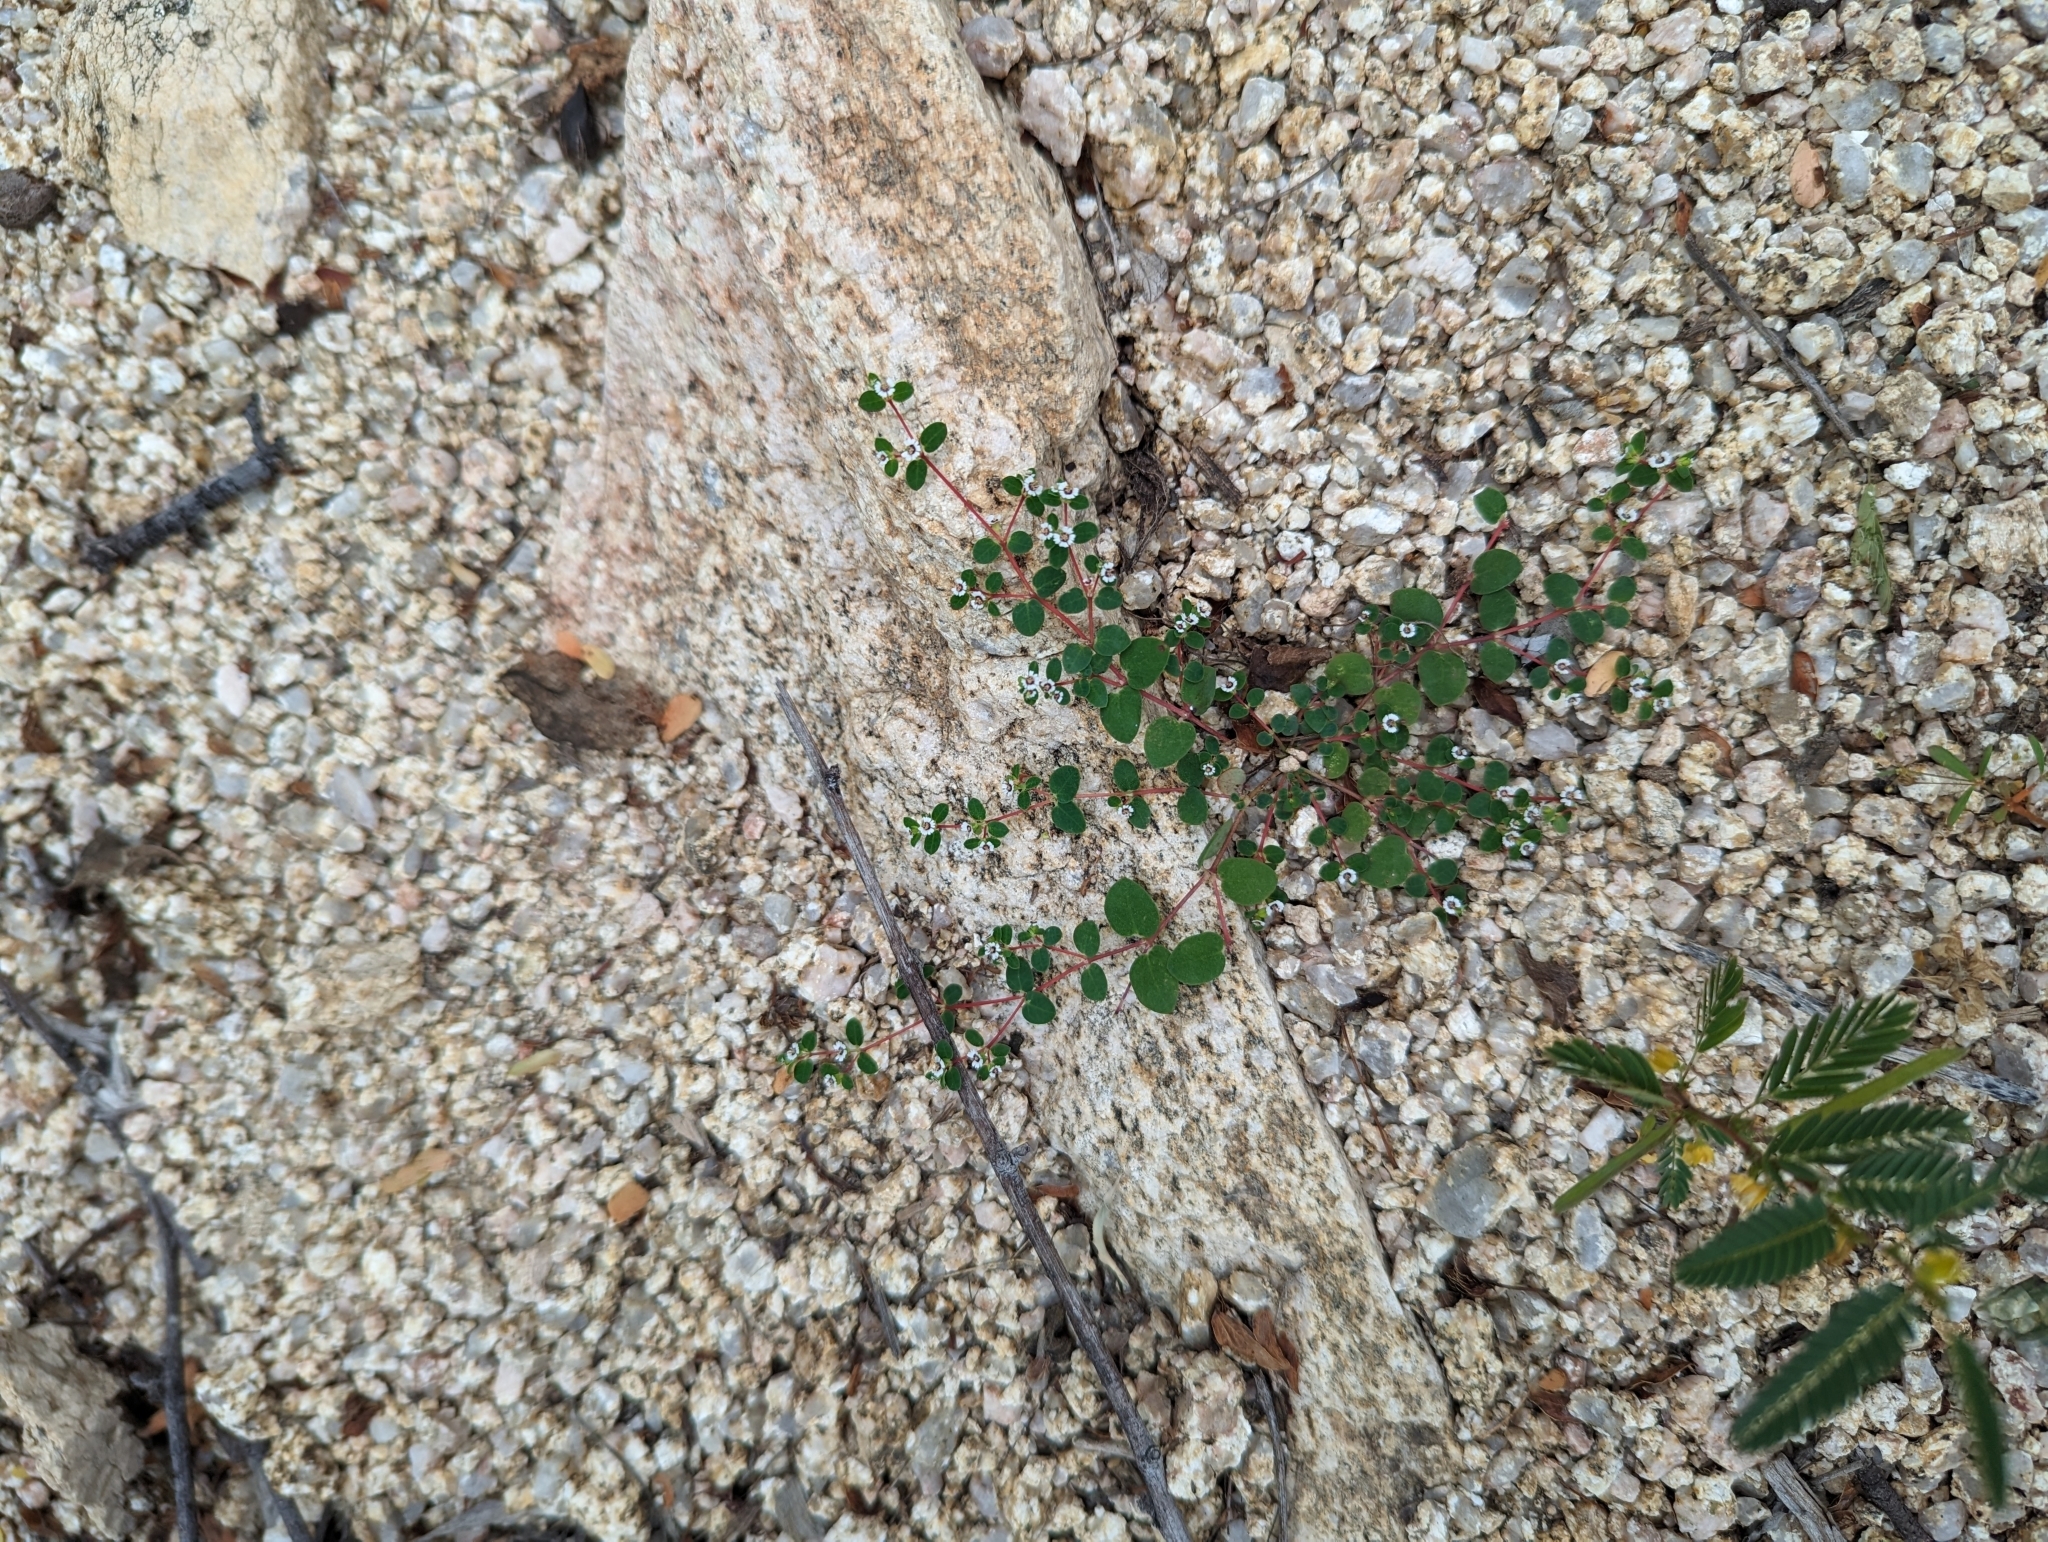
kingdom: Plantae
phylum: Tracheophyta
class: Magnoliopsida
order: Malpighiales
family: Euphorbiaceae
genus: Euphorbia
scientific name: Euphorbia polycarpa
